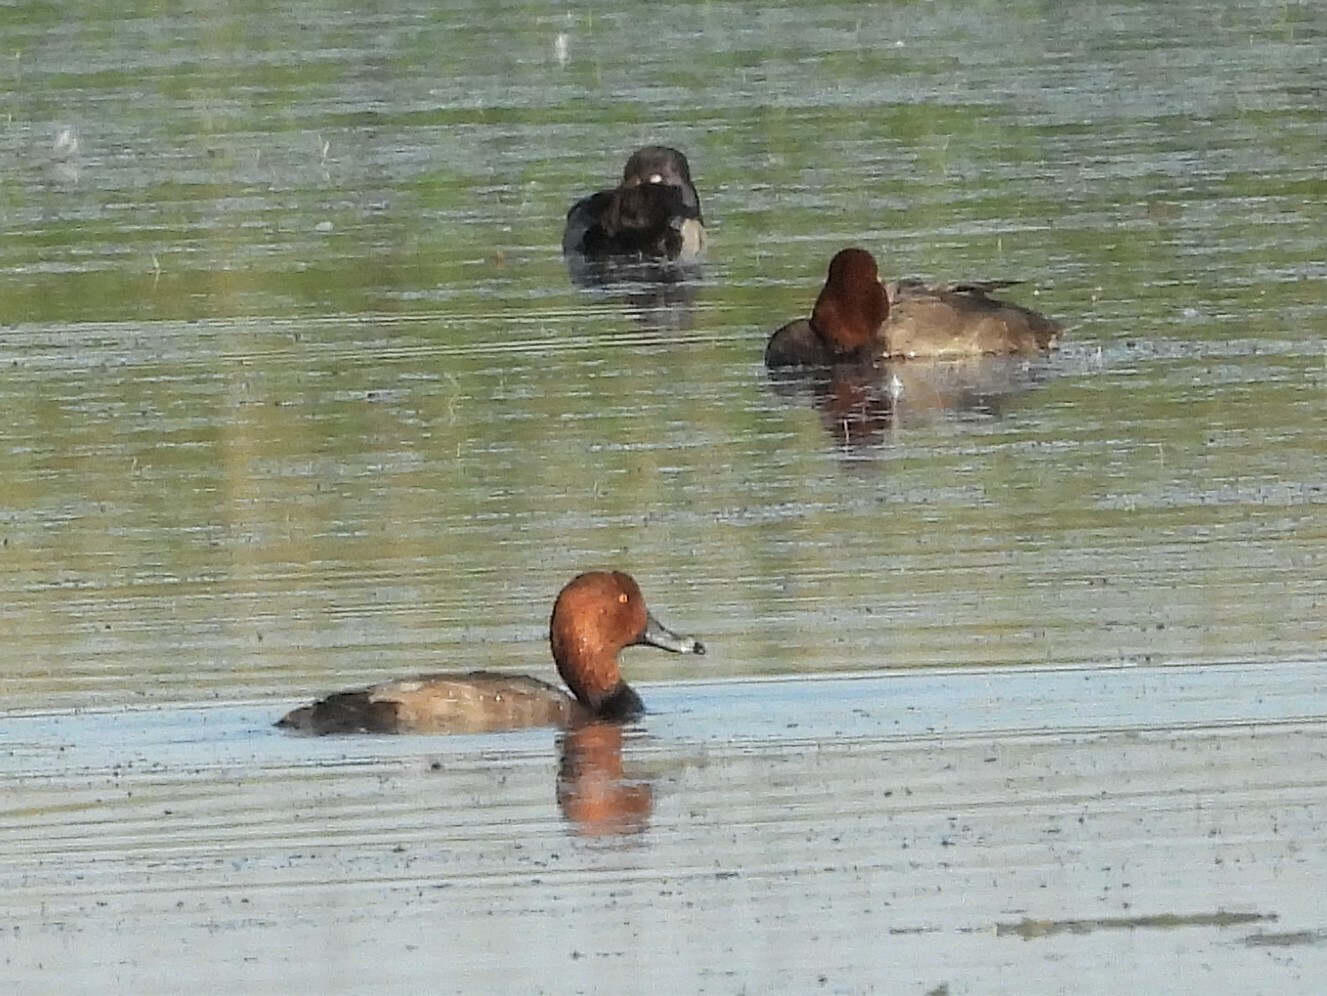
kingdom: Animalia
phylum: Chordata
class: Aves
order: Anseriformes
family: Anatidae
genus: Aythya
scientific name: Aythya americana
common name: Redhead
